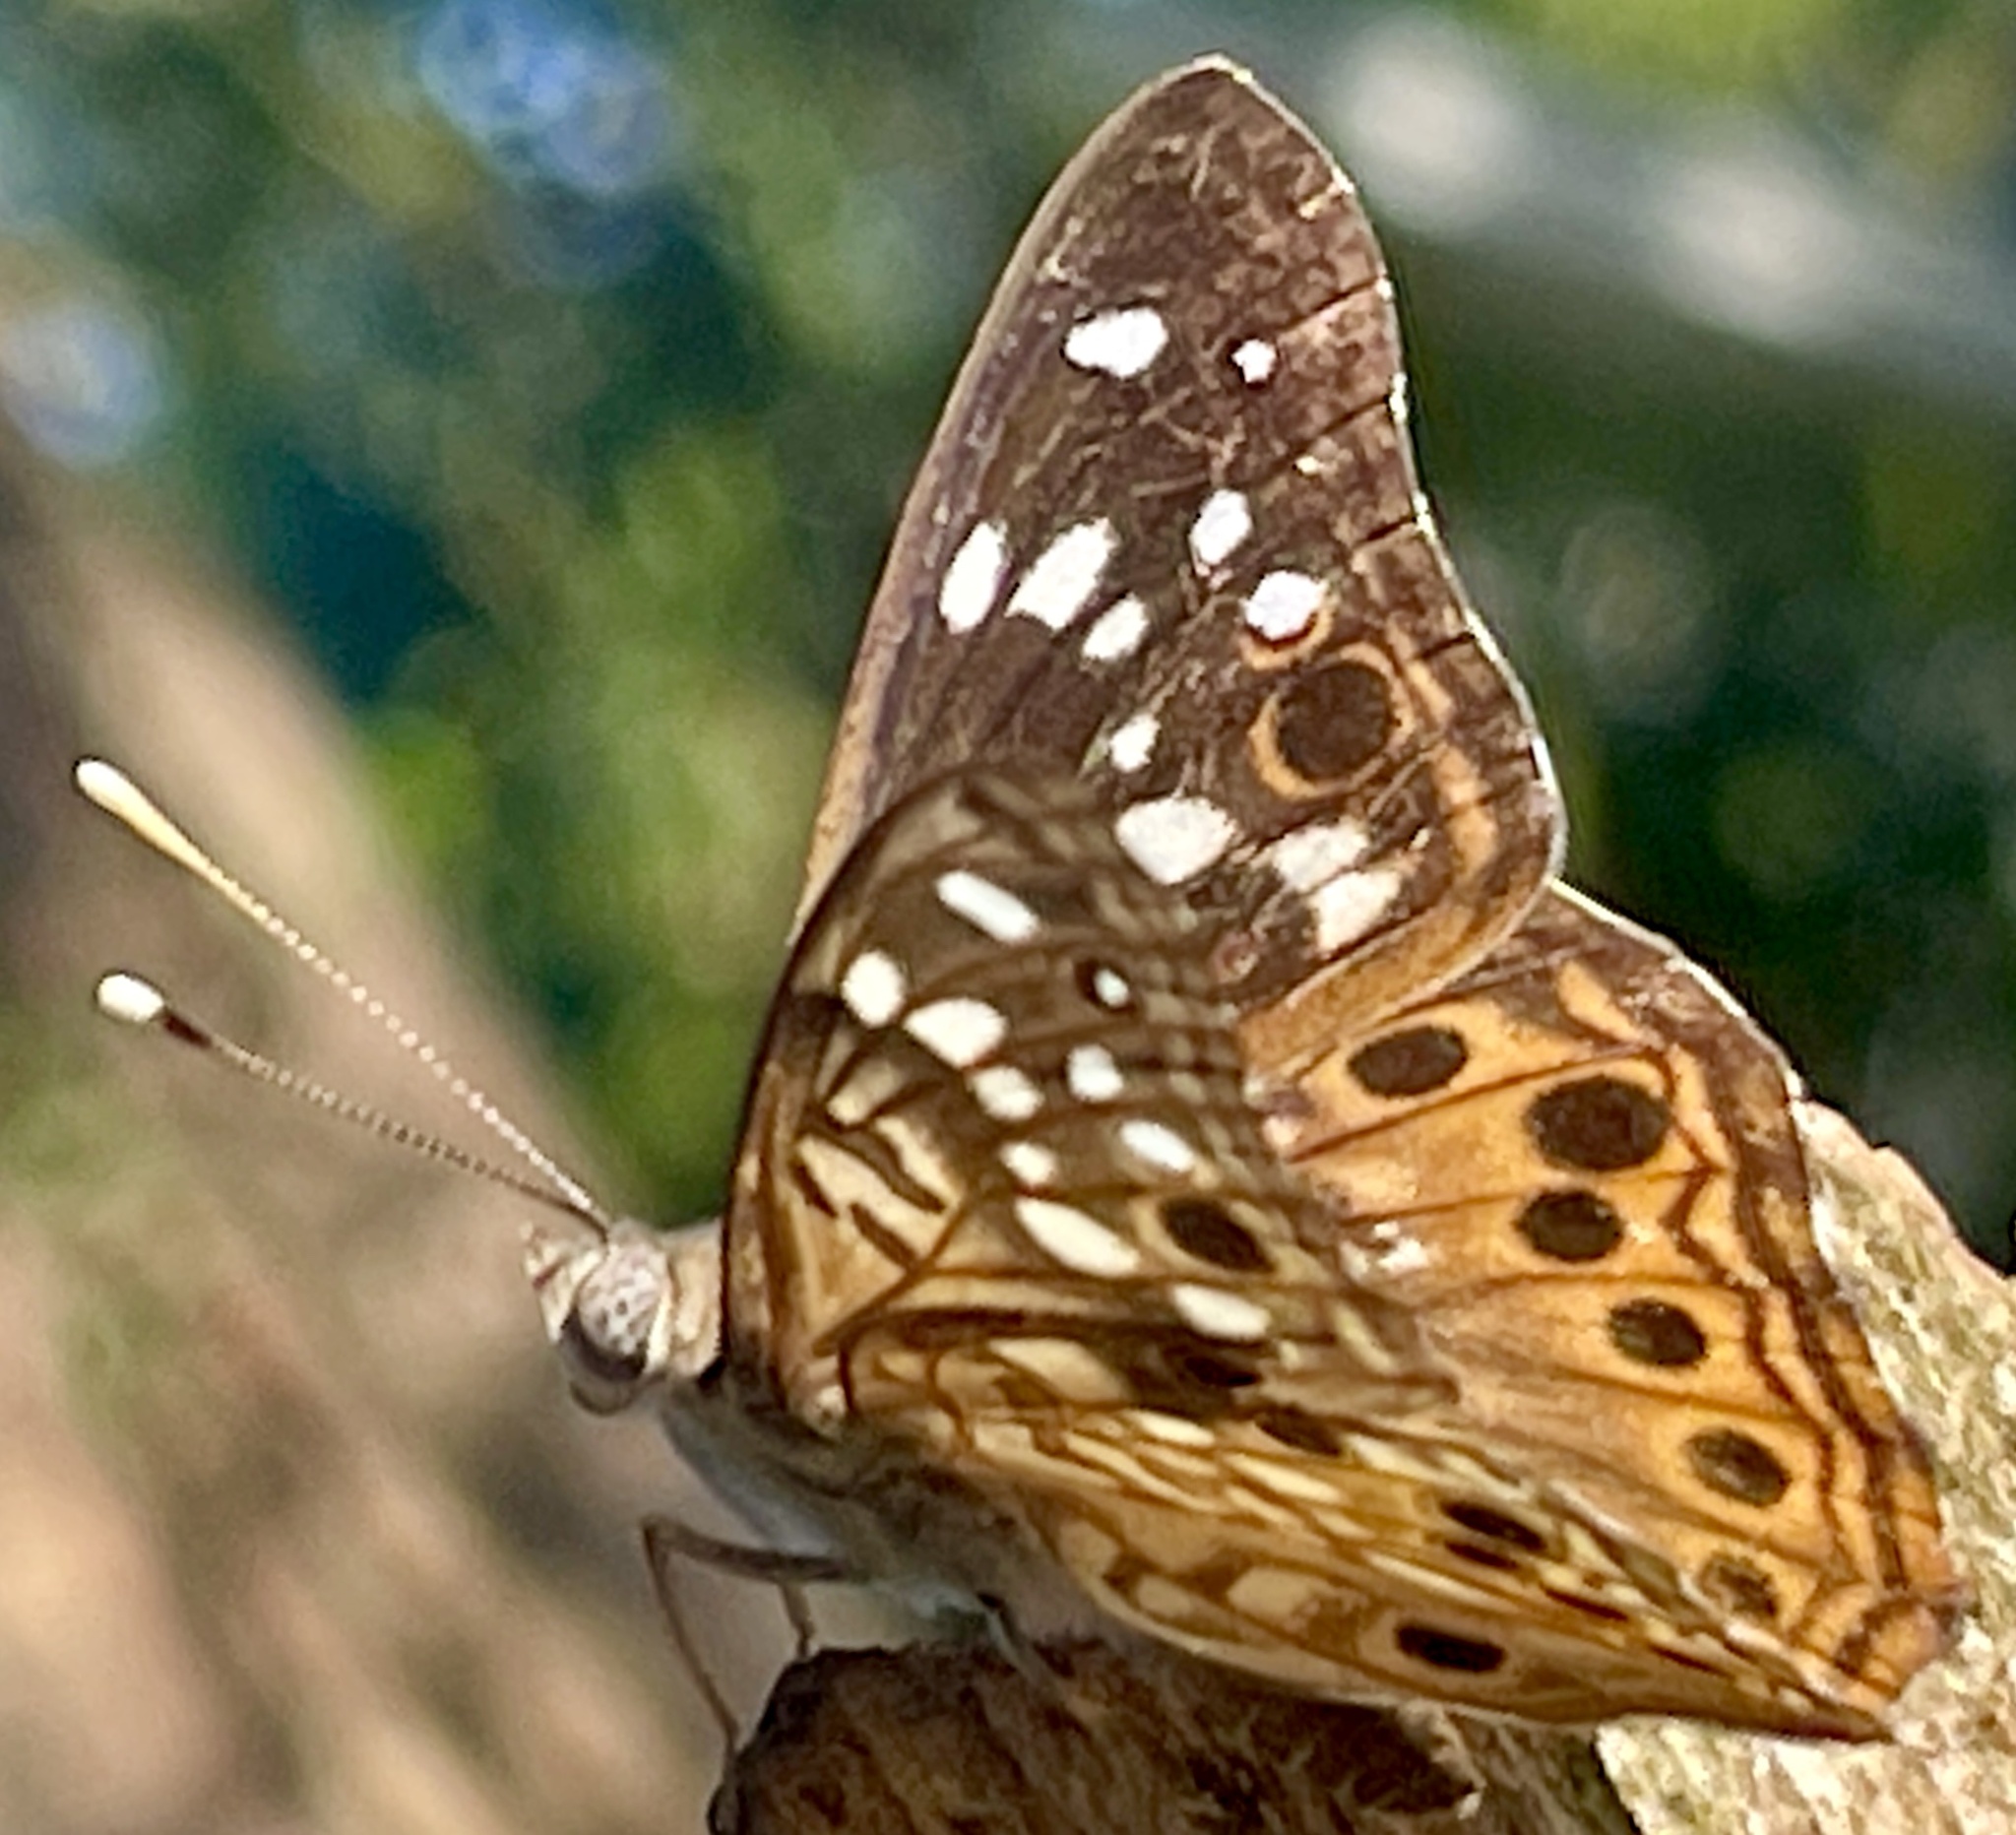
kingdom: Animalia
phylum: Arthropoda
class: Insecta
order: Lepidoptera
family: Nymphalidae
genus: Asterocampa
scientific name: Asterocampa celtis
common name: Hackberry emperor
